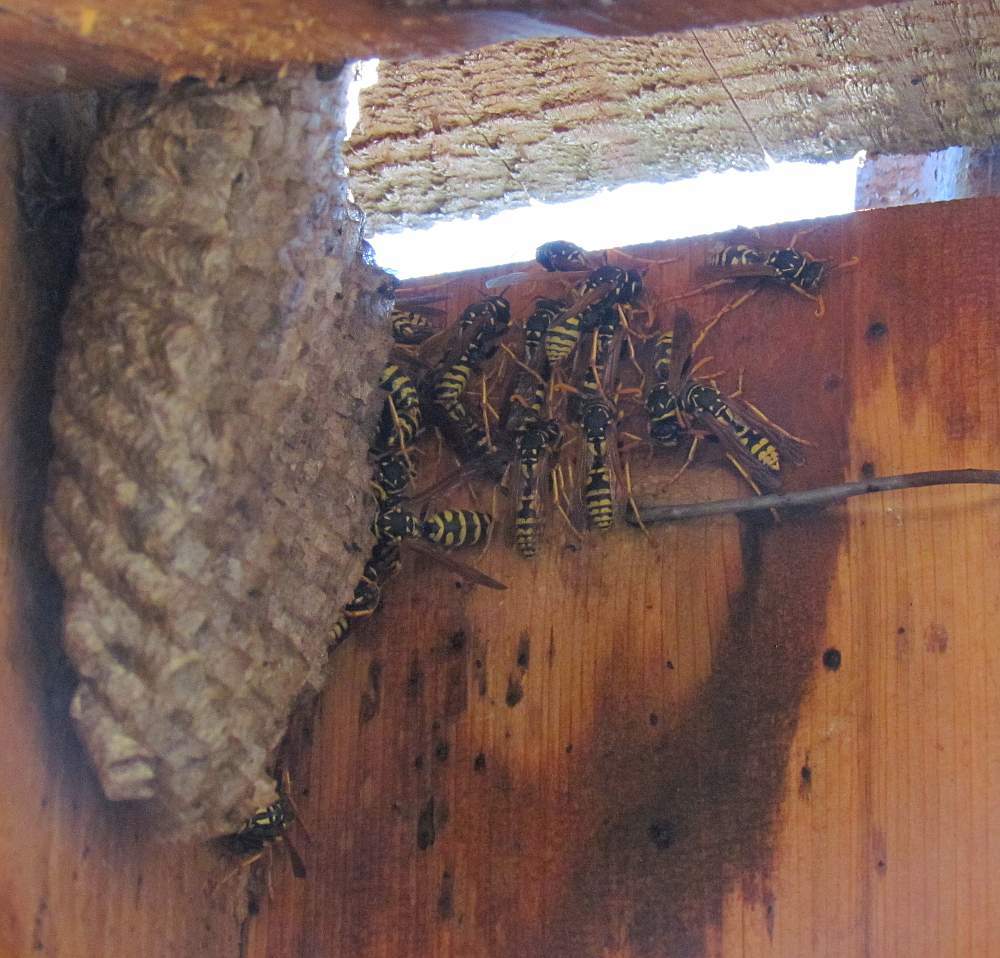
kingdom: Animalia
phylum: Arthropoda
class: Insecta
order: Hymenoptera
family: Eumenidae
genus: Polistes
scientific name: Polistes dominula
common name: Paper wasp
